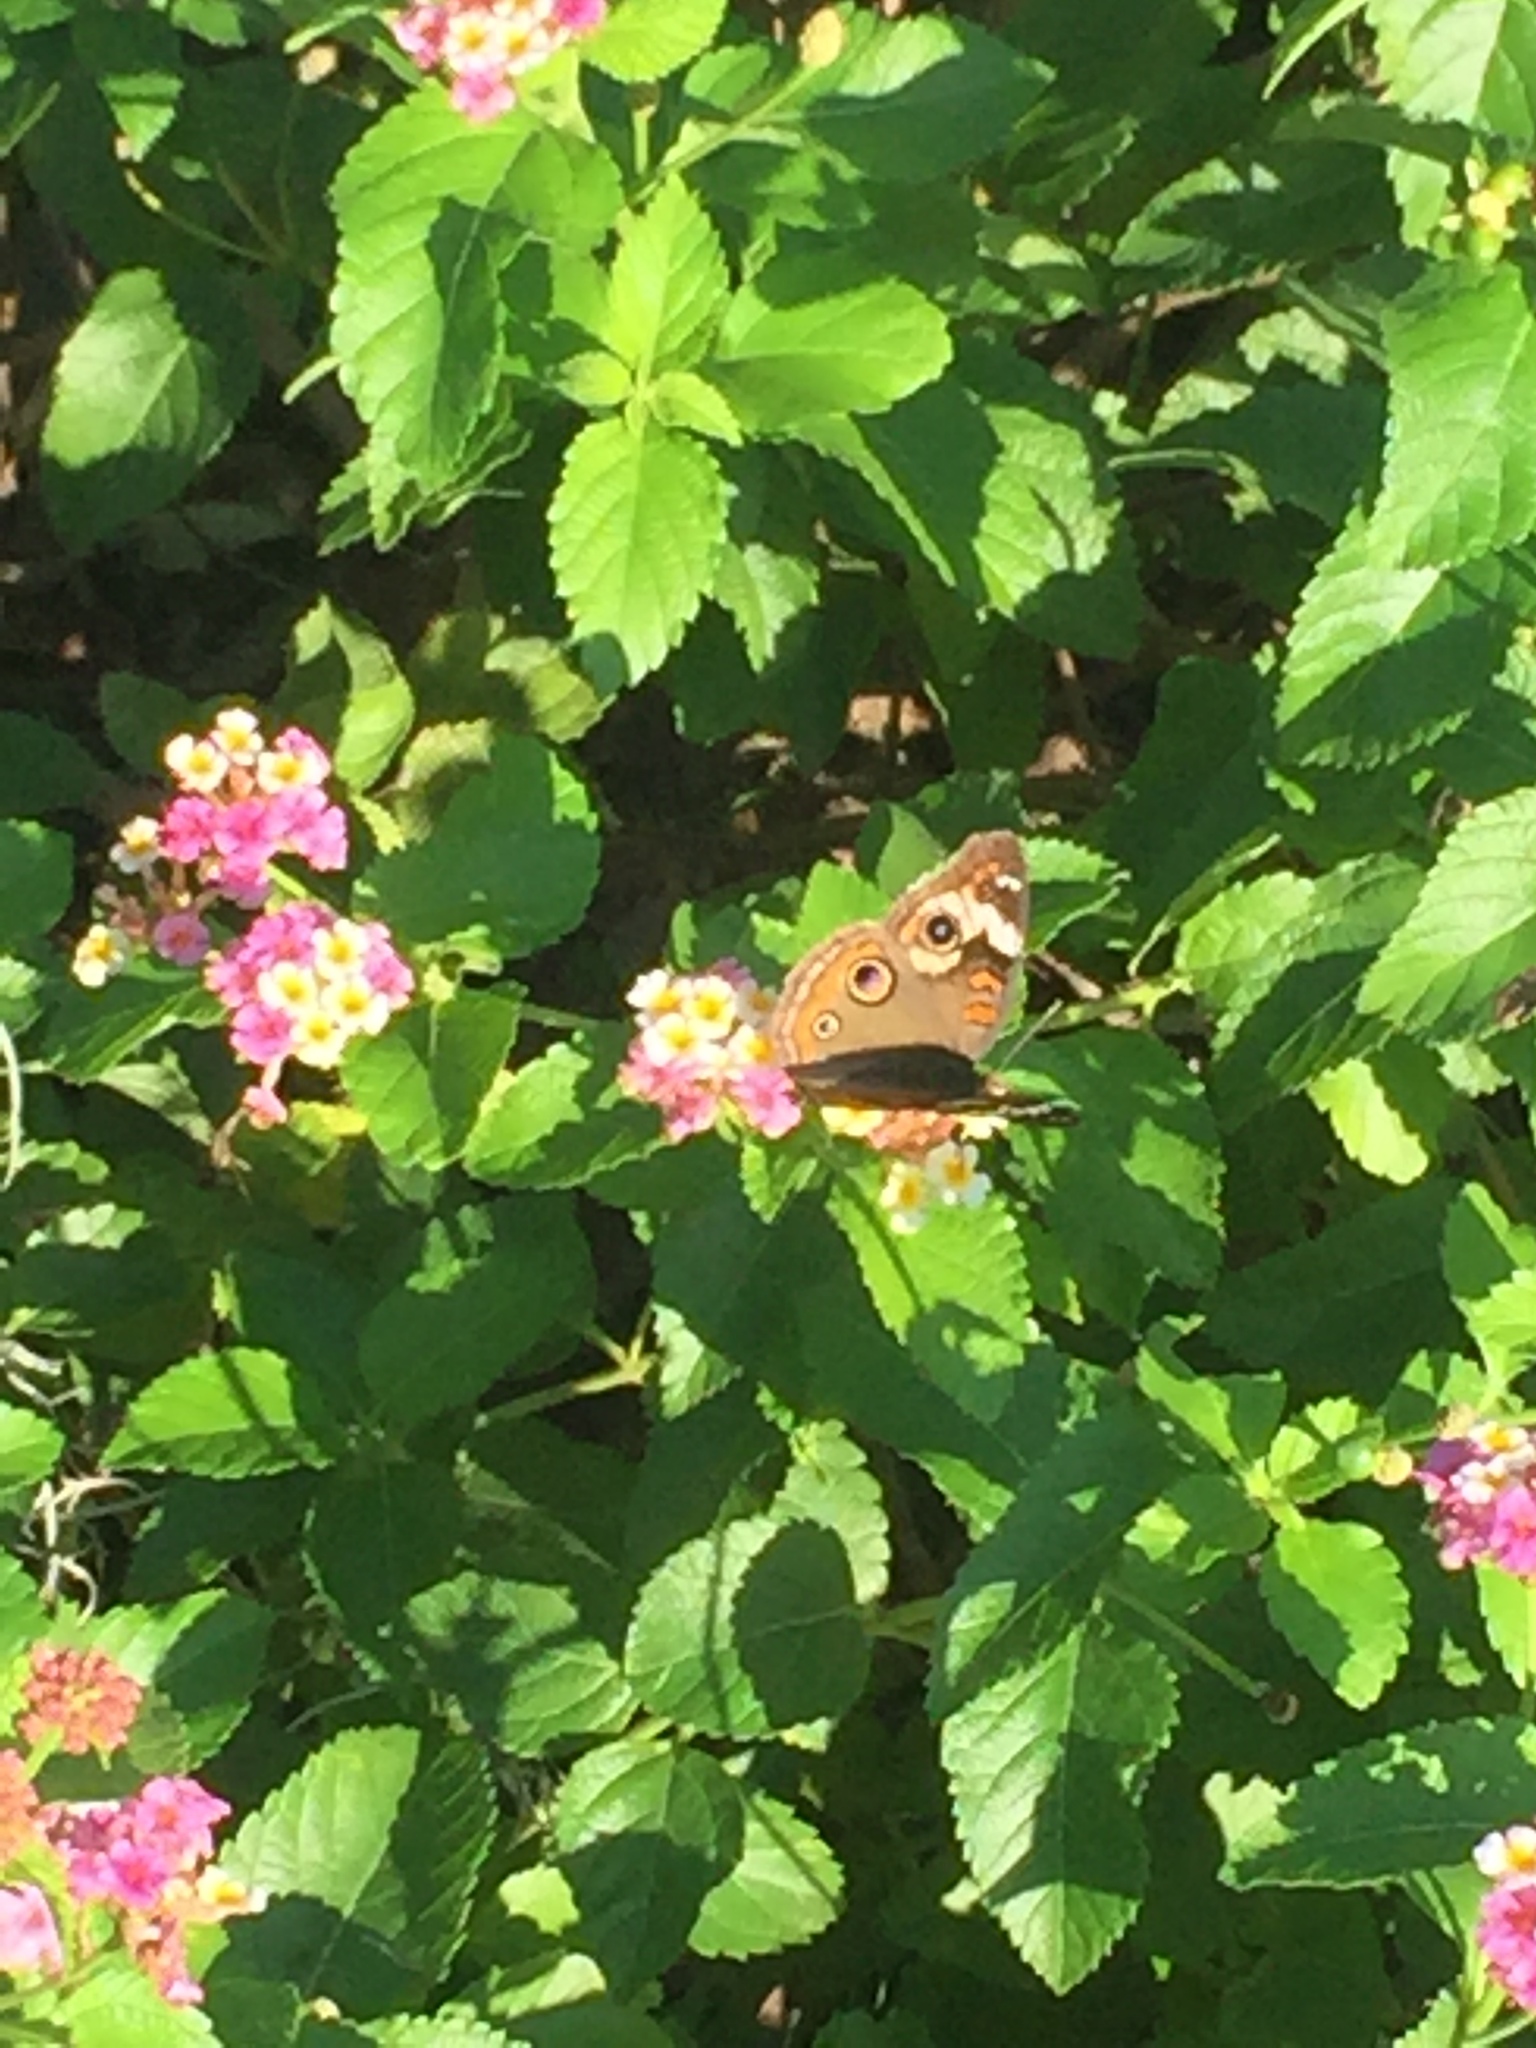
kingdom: Animalia
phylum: Arthropoda
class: Insecta
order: Lepidoptera
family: Nymphalidae
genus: Junonia
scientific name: Junonia coenia
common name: Common buckeye
